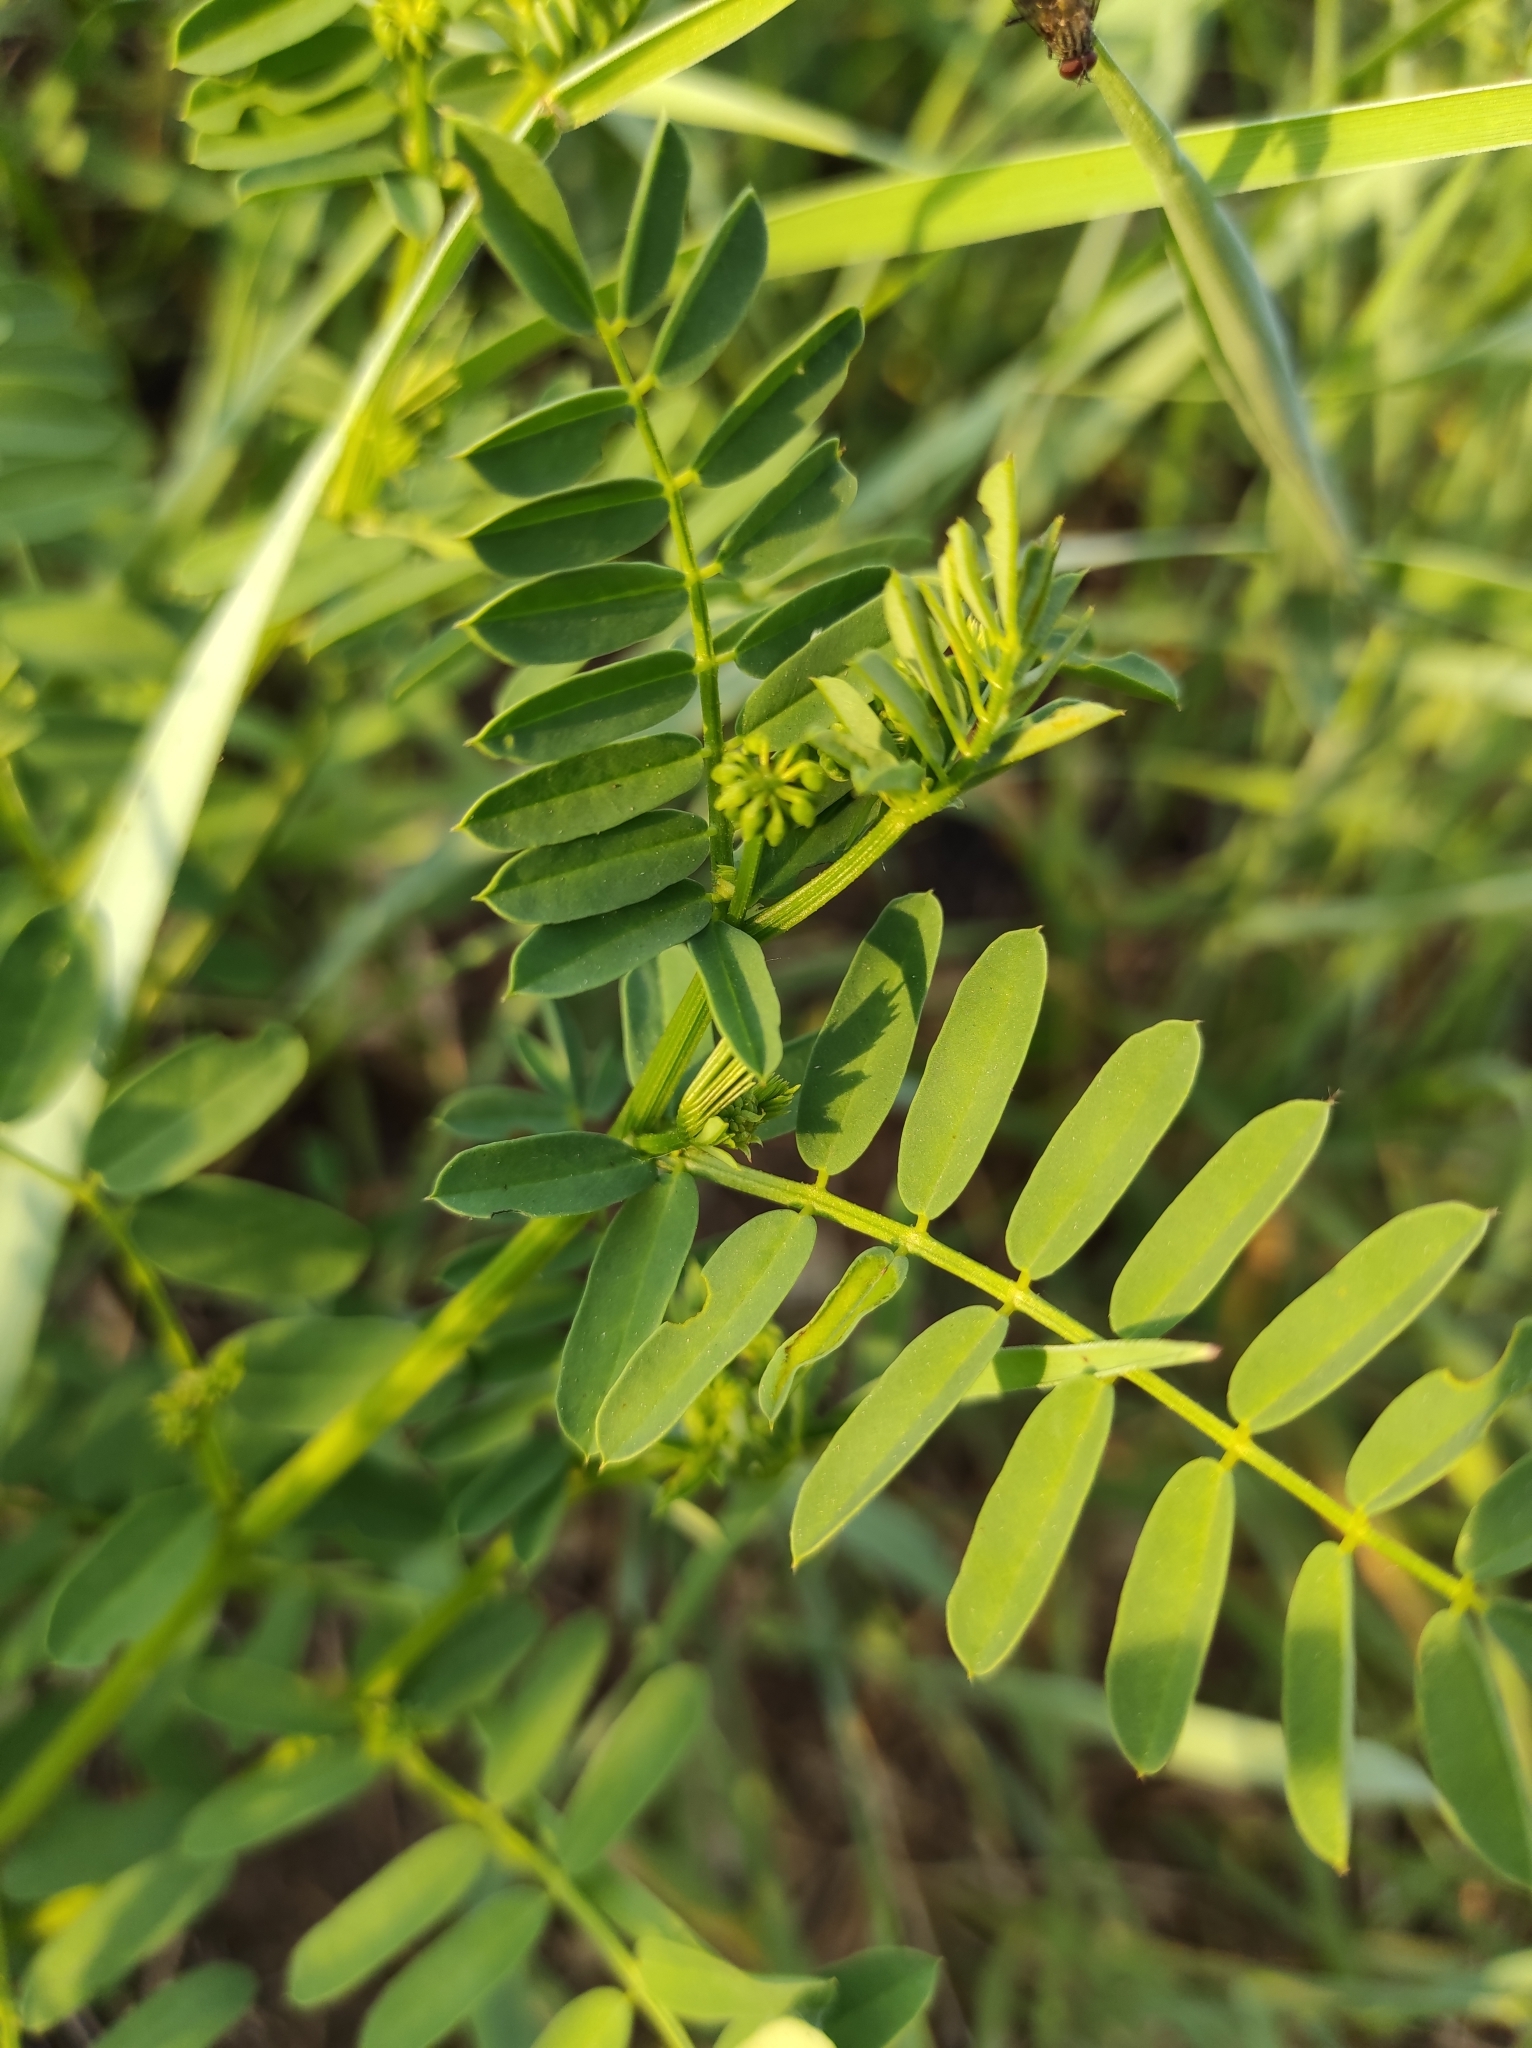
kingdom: Plantae
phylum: Tracheophyta
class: Magnoliopsida
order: Fabales
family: Fabaceae
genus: Coronilla
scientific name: Coronilla varia
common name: Crownvetch
